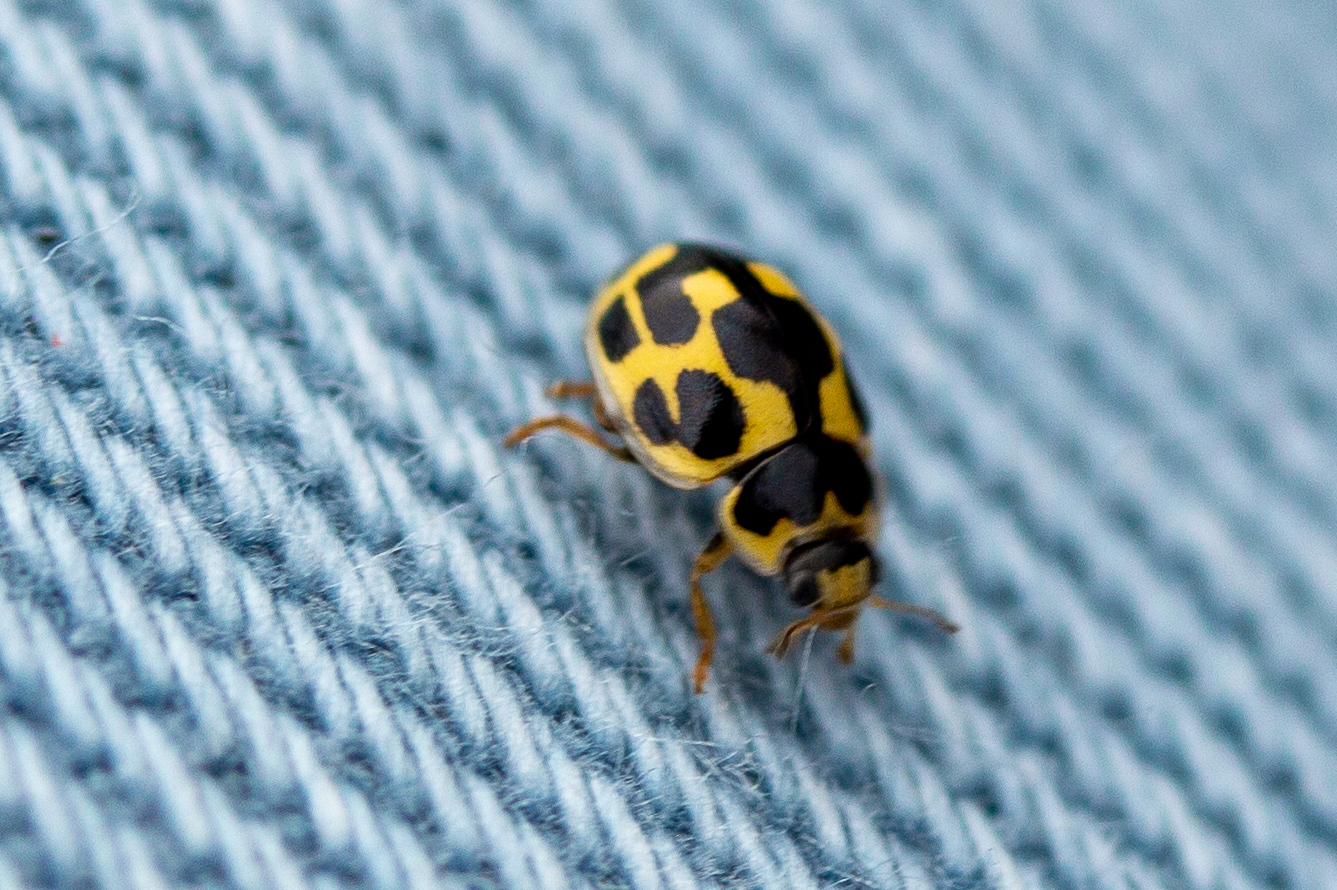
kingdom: Animalia
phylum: Arthropoda
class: Insecta
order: Coleoptera
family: Coccinellidae
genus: Propylaea
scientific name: Propylaea quatuordecimpunctata
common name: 14-spotted ladybird beetle
